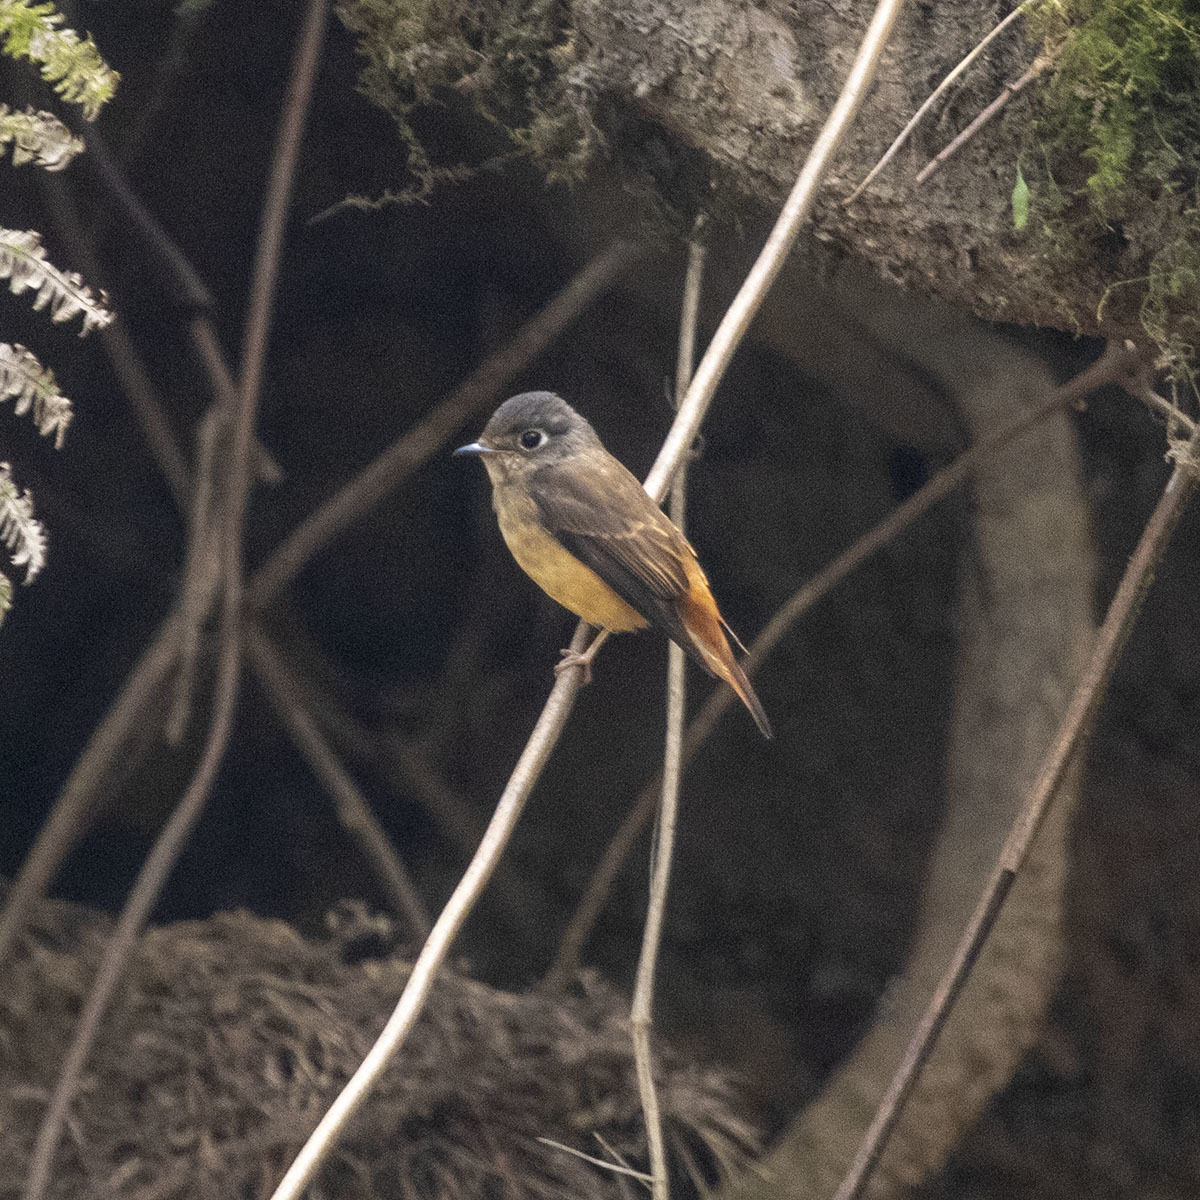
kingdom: Animalia
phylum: Chordata
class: Aves
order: Passeriformes
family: Muscicapidae
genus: Muscicapa
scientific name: Muscicapa ferruginea
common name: Ferruginous flycatcher
